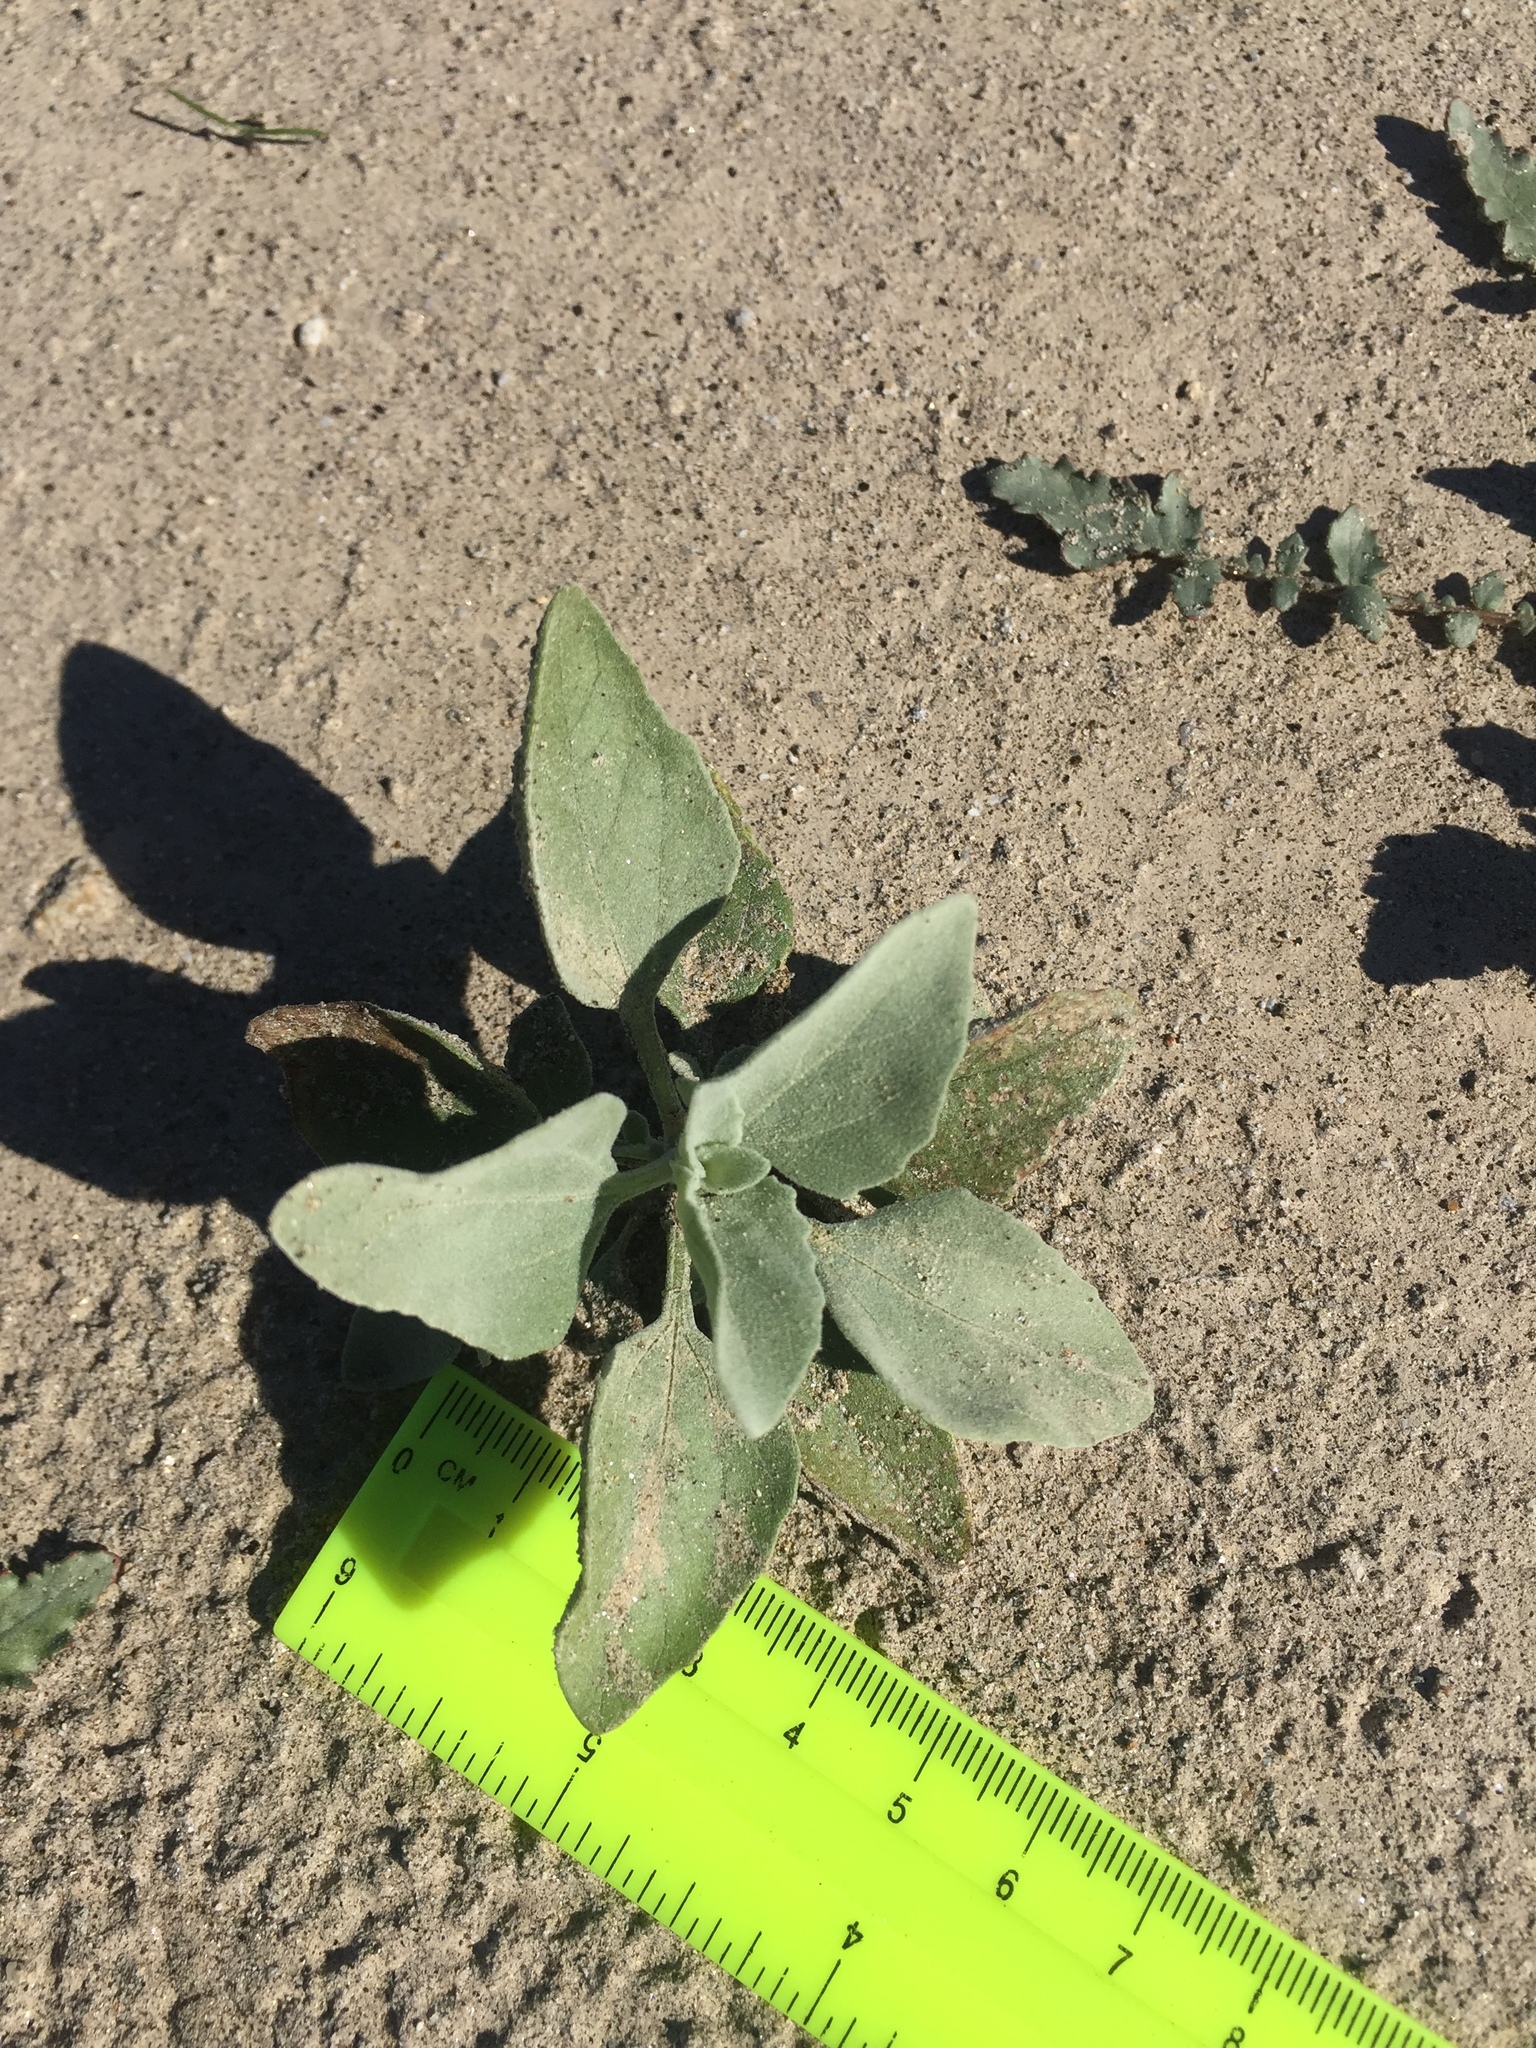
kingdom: Plantae
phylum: Tracheophyta
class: Magnoliopsida
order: Asterales
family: Asteraceae
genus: Encelia
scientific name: Encelia farinosa
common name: Brittlebush
